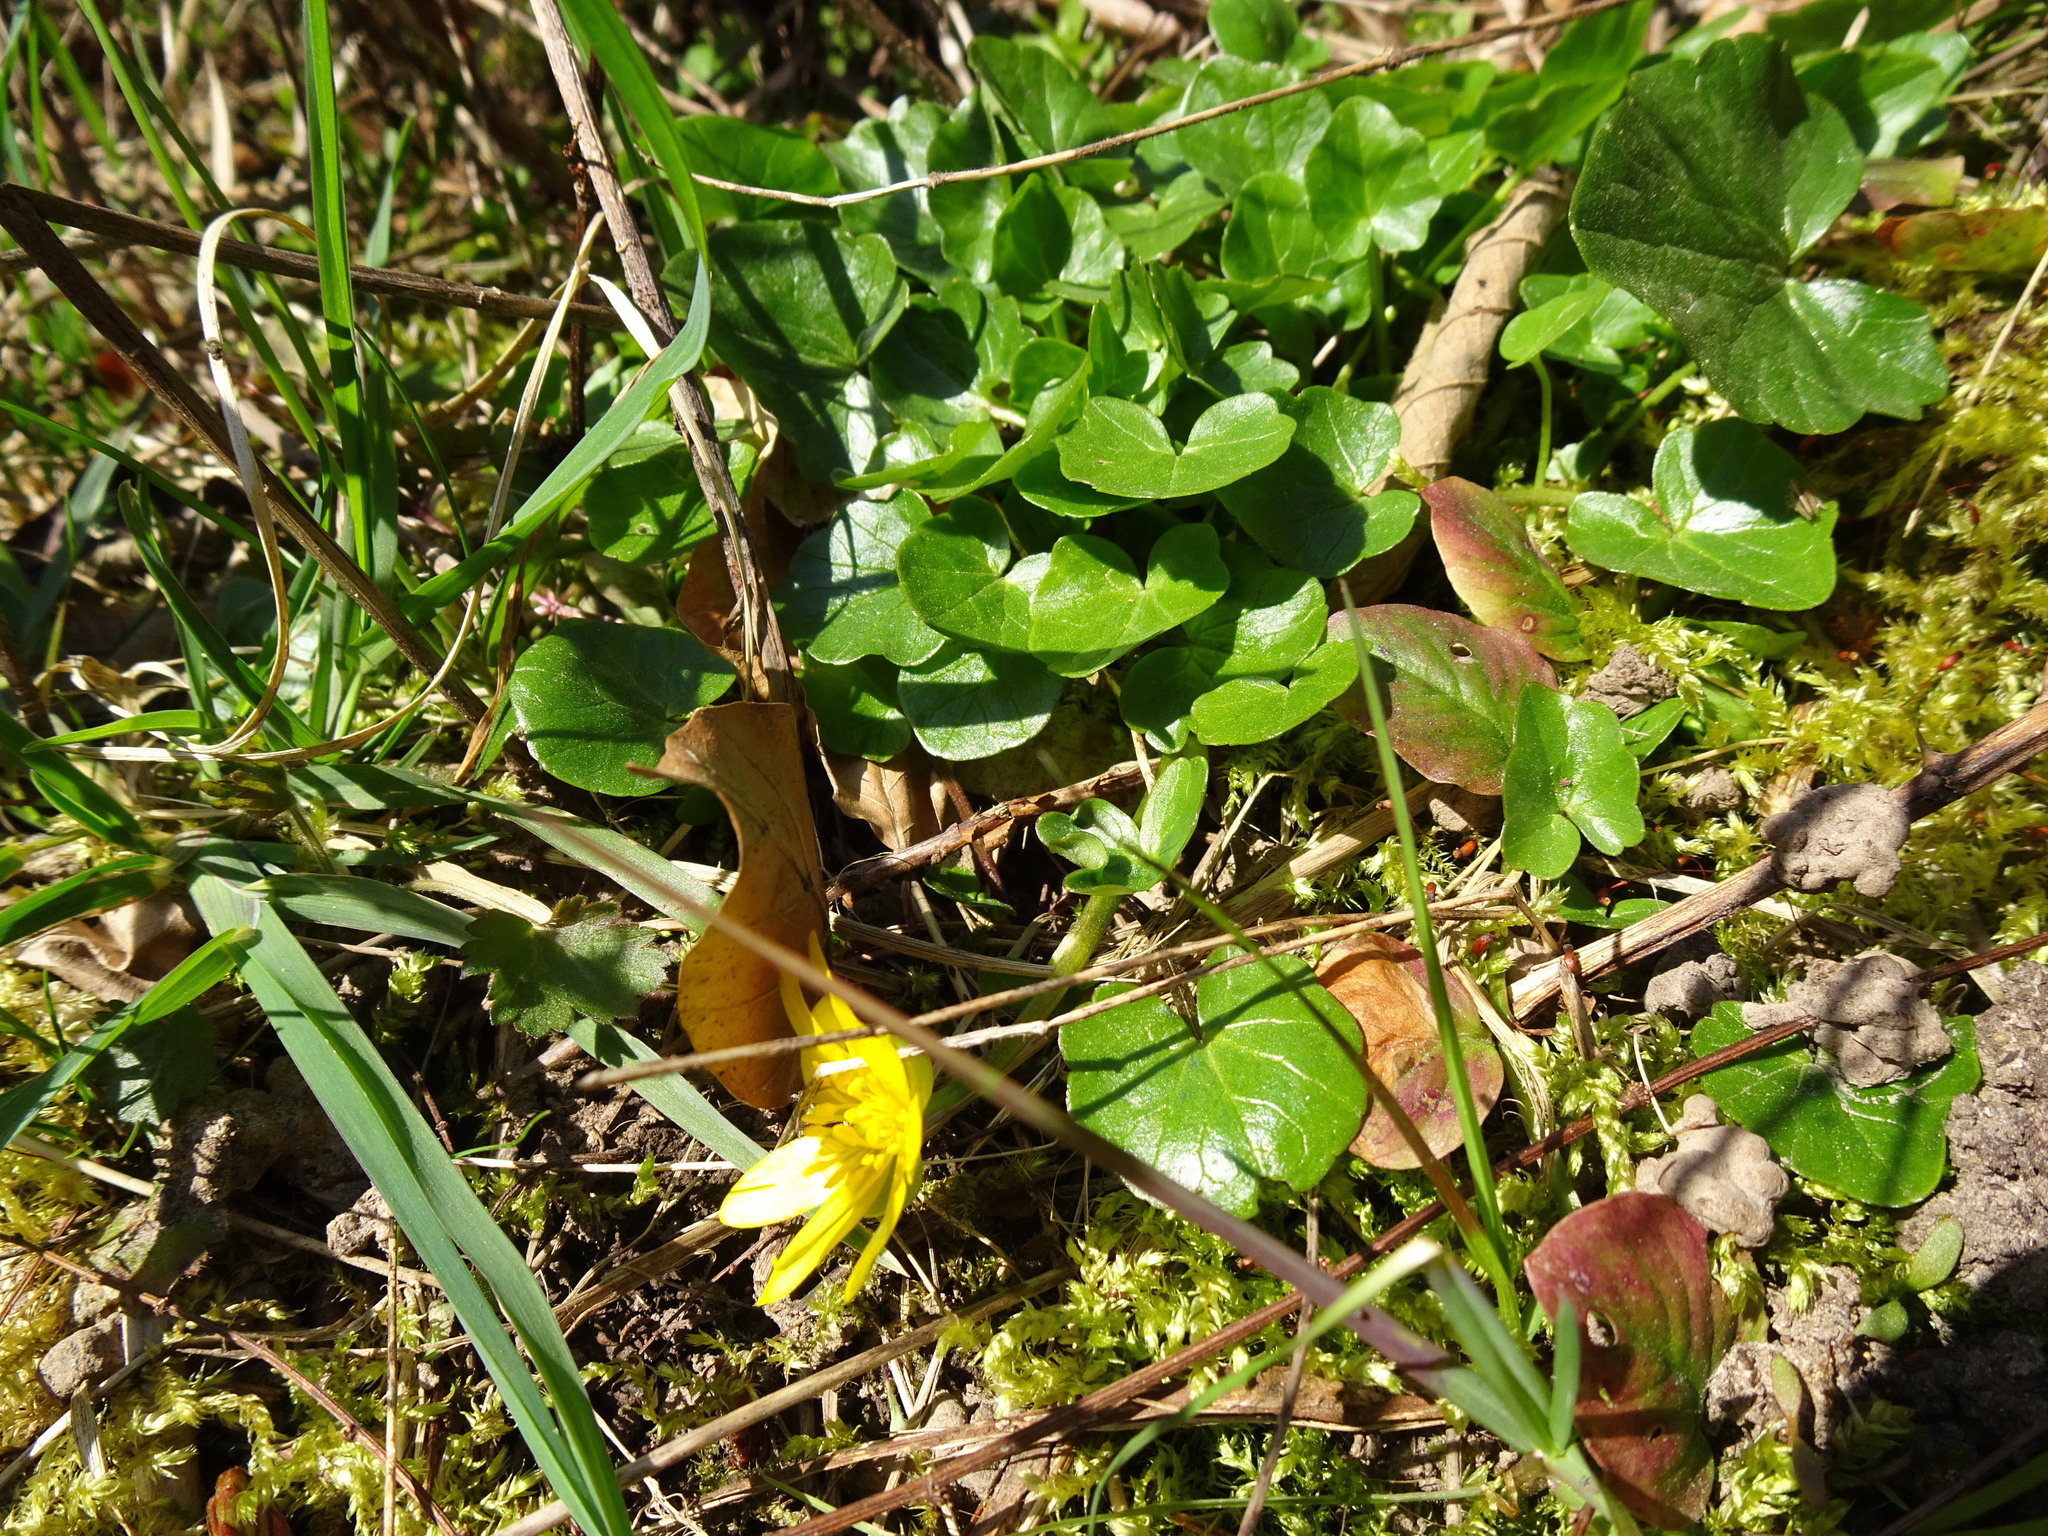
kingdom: Plantae
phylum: Tracheophyta
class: Magnoliopsida
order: Ranunculales
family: Ranunculaceae
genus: Ficaria
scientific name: Ficaria verna
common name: Lesser celandine
